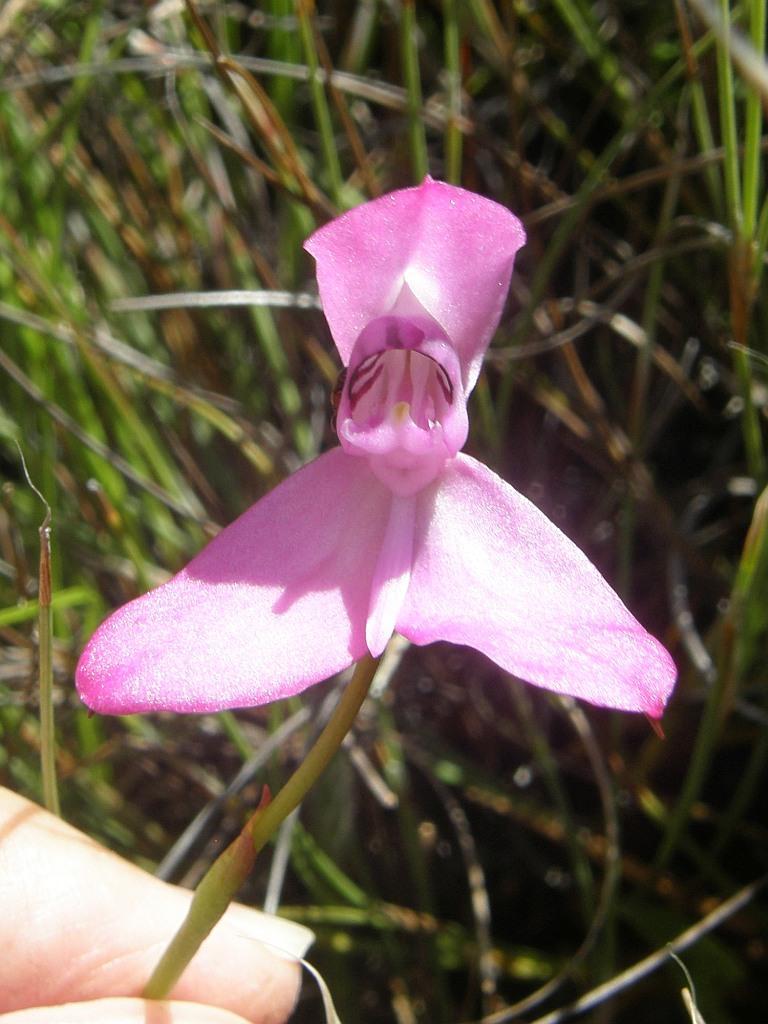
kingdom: Plantae
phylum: Tracheophyta
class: Liliopsida
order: Asparagales
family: Orchidaceae
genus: Disa
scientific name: Disa venosa
